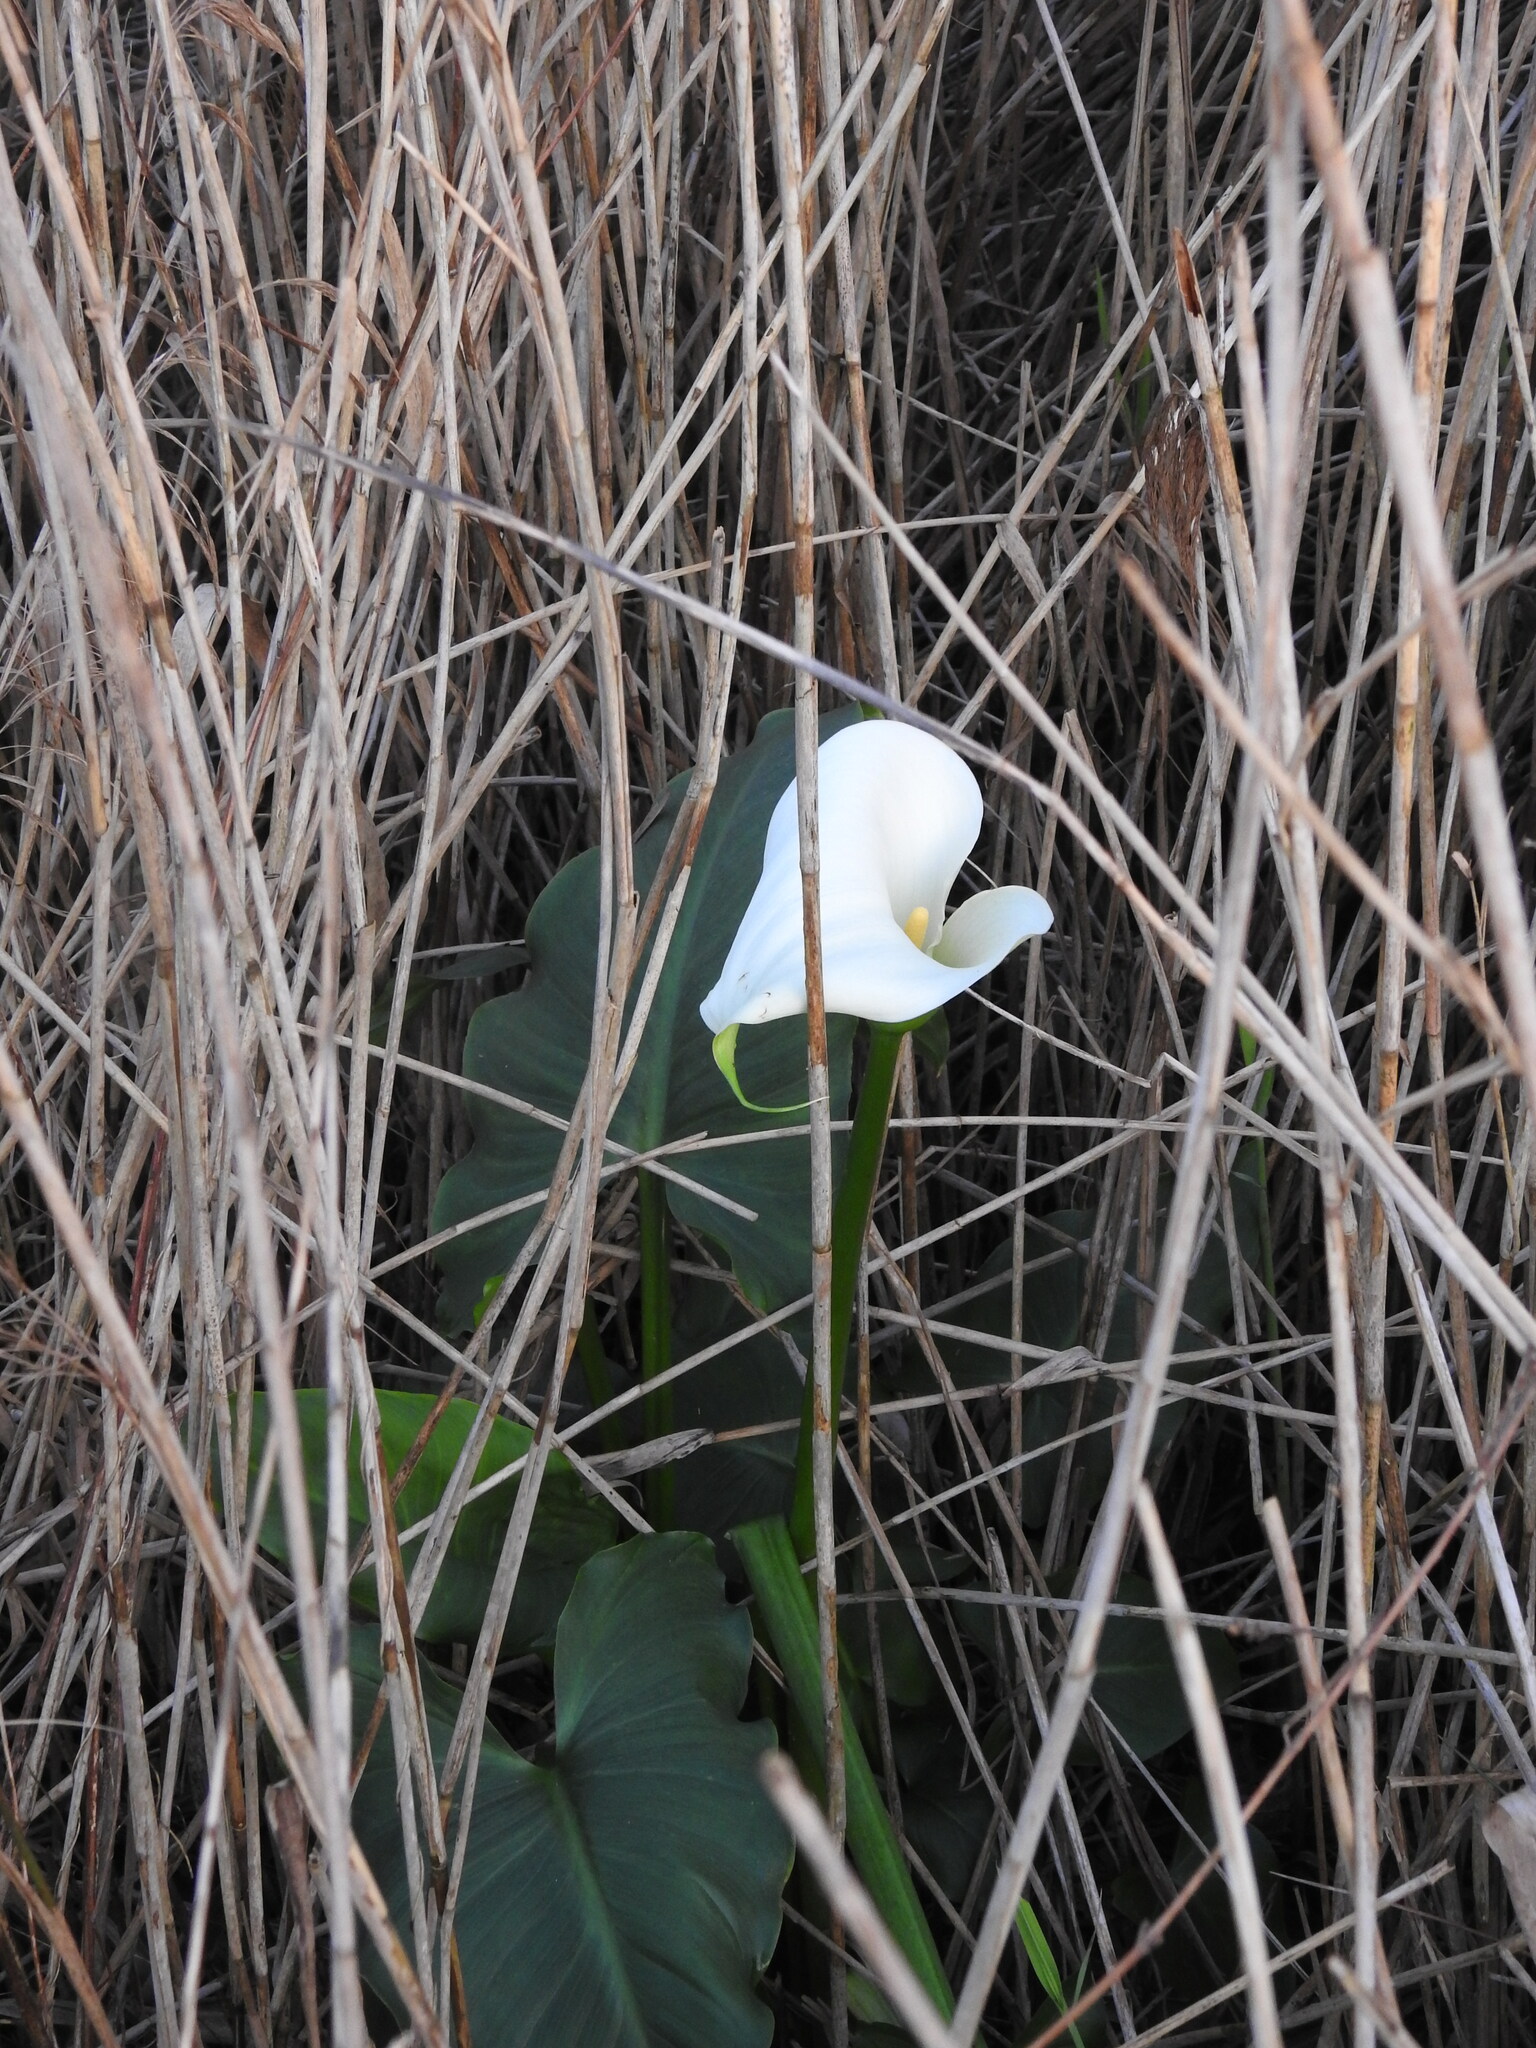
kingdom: Plantae
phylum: Tracheophyta
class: Liliopsida
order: Alismatales
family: Araceae
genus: Zantedeschia
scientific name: Zantedeschia aethiopica
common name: Altar-lily
